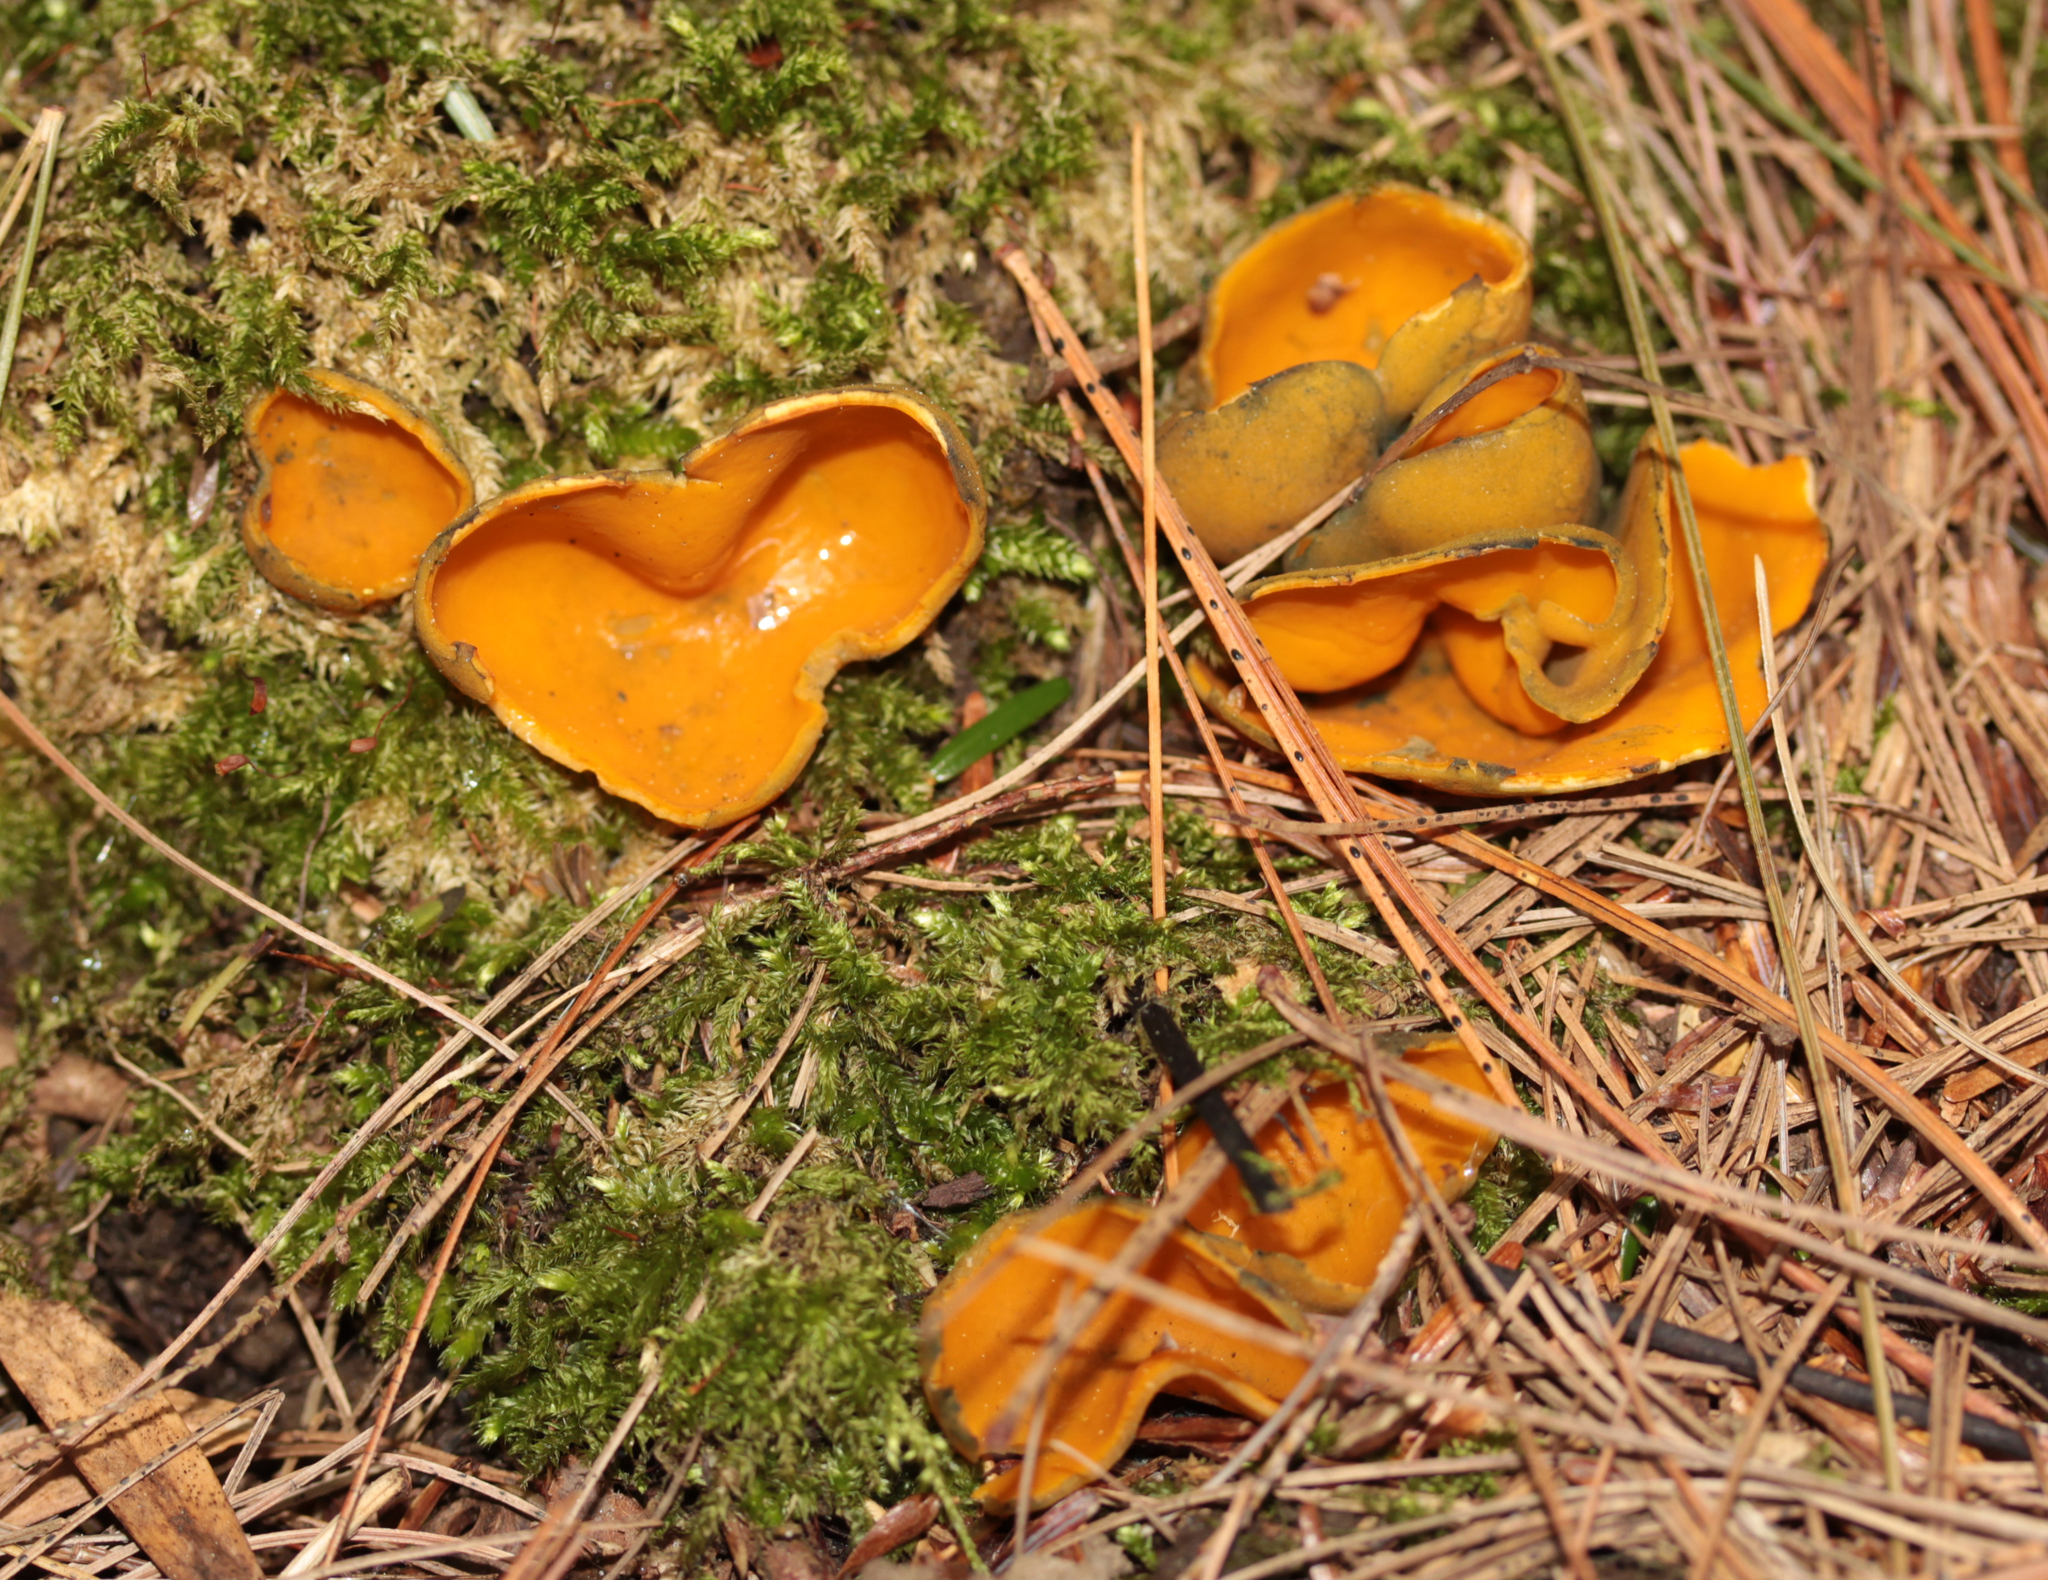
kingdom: Fungi
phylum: Ascomycota
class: Pezizomycetes
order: Pezizales
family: Caloscyphaceae
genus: Caloscypha
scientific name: Caloscypha fulgens
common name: Golden cup
